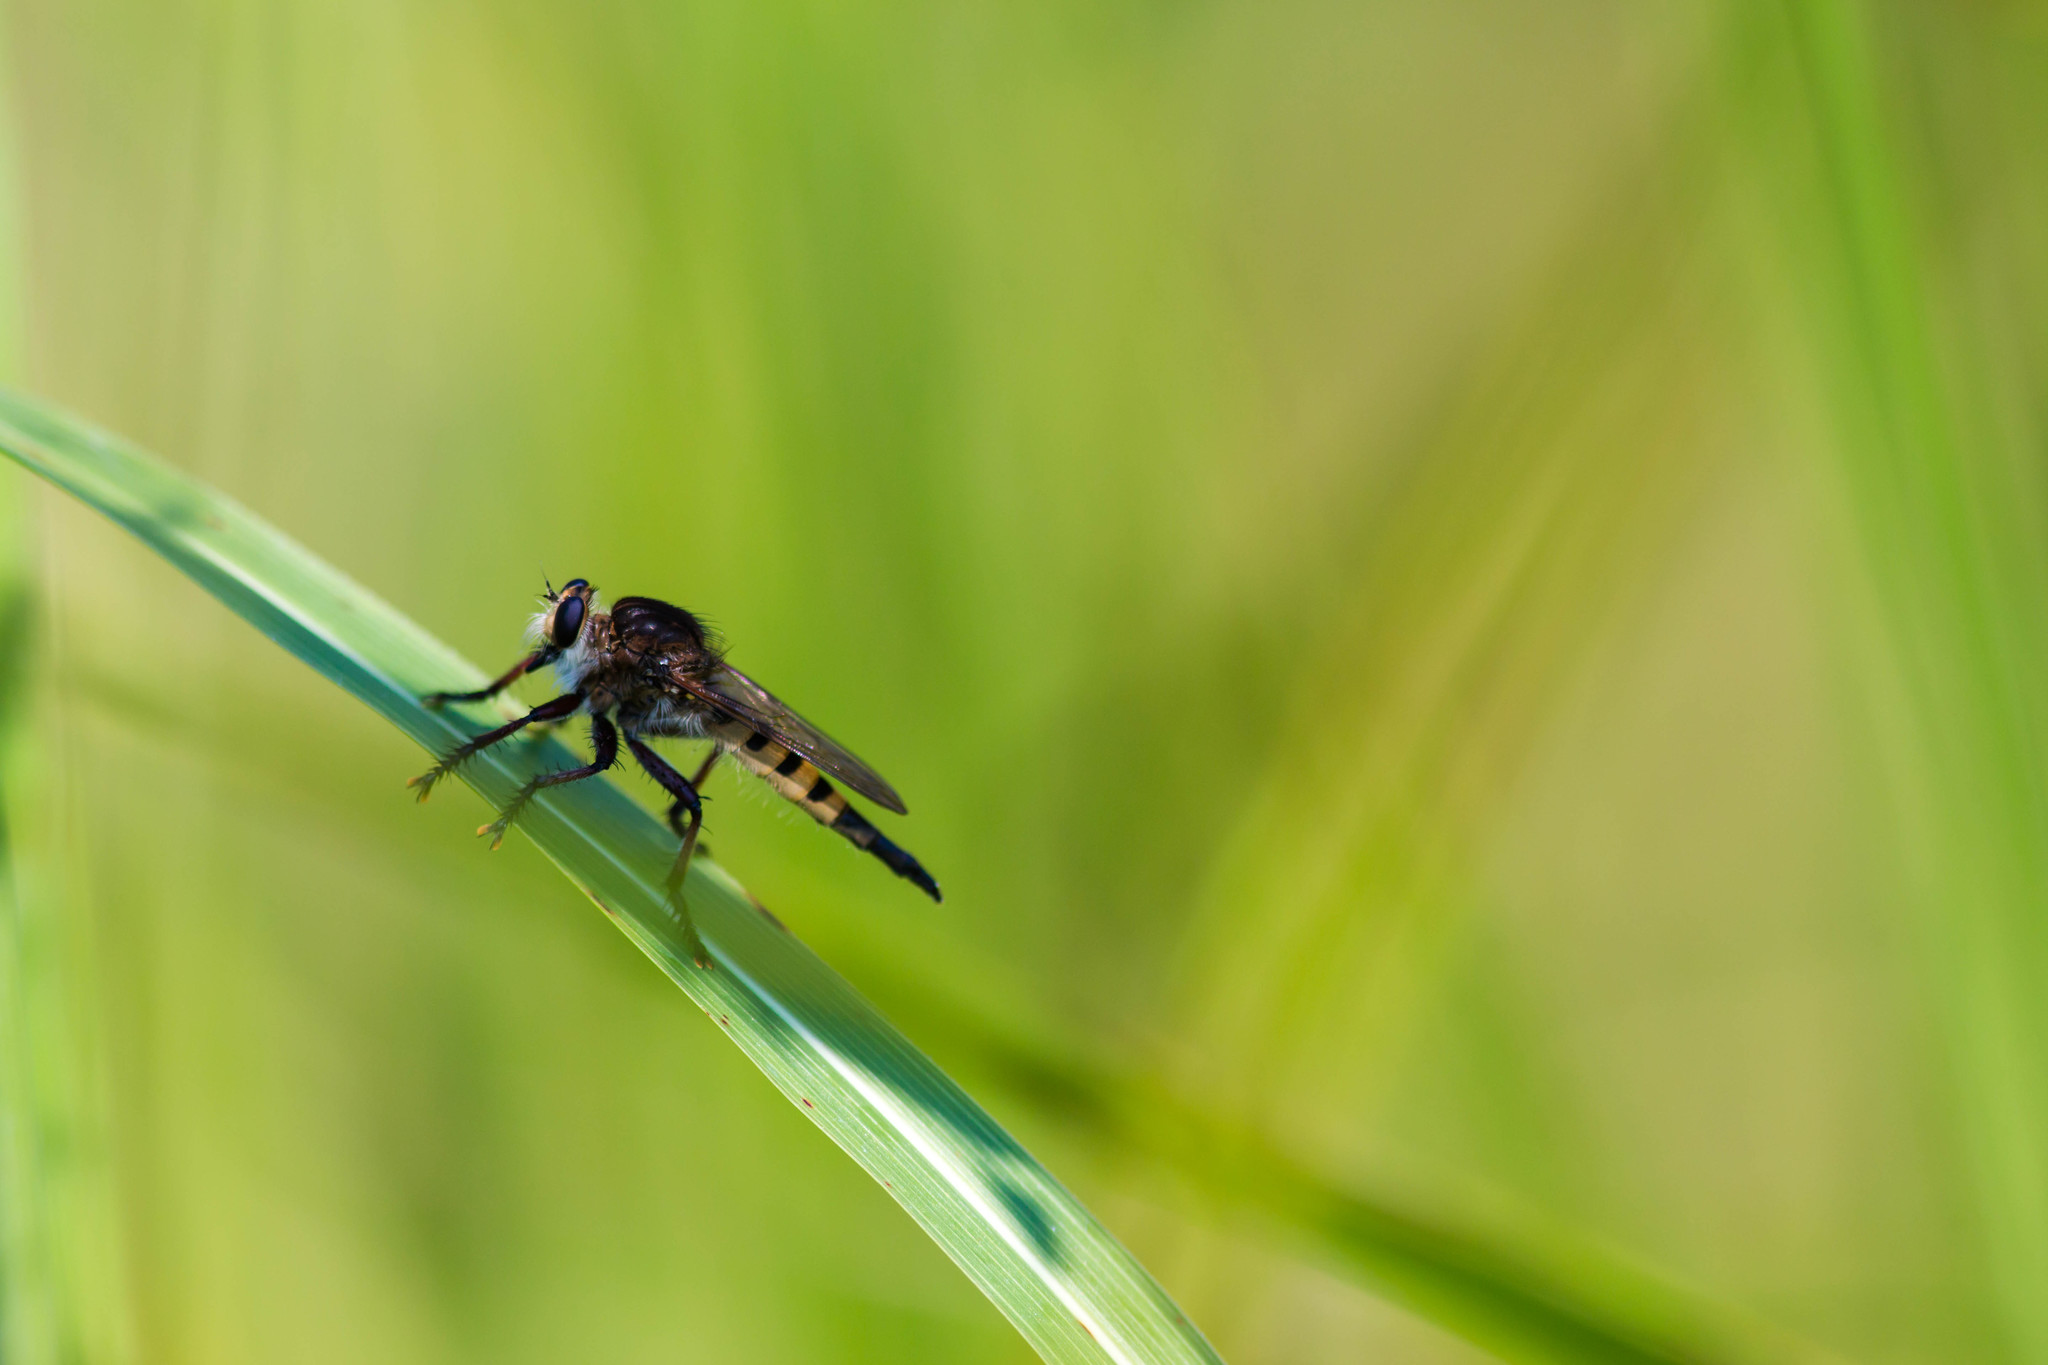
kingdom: Animalia
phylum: Arthropoda
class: Insecta
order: Diptera
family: Asilidae
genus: Promachus
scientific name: Promachus hinei
